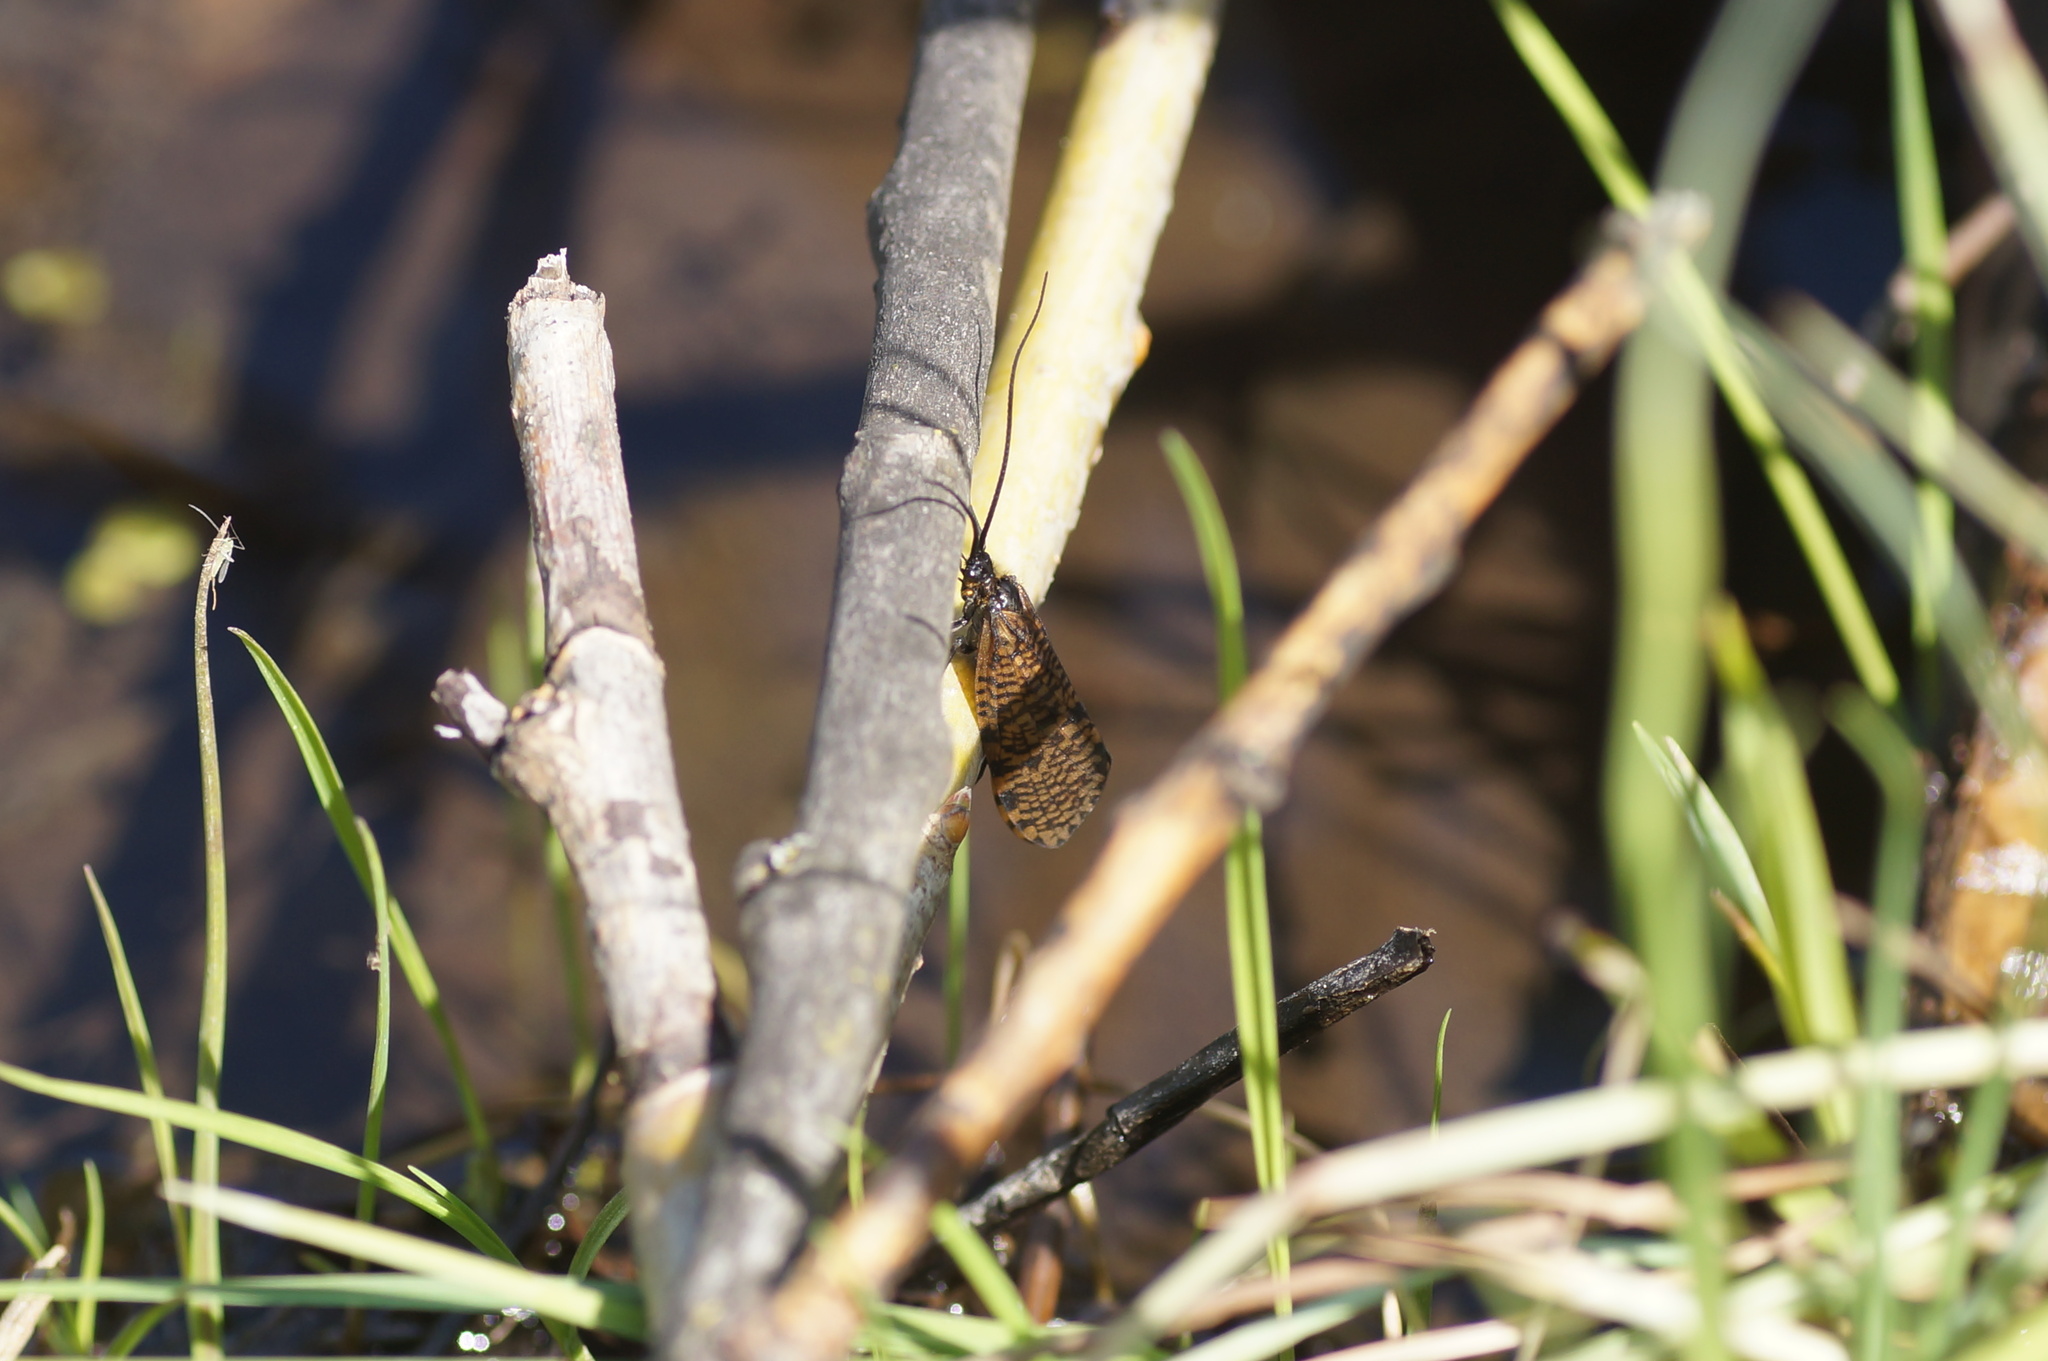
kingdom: Animalia
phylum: Arthropoda
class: Insecta
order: Trichoptera
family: Phryganeidae
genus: Oligostomis
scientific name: Oligostomis reticulata
